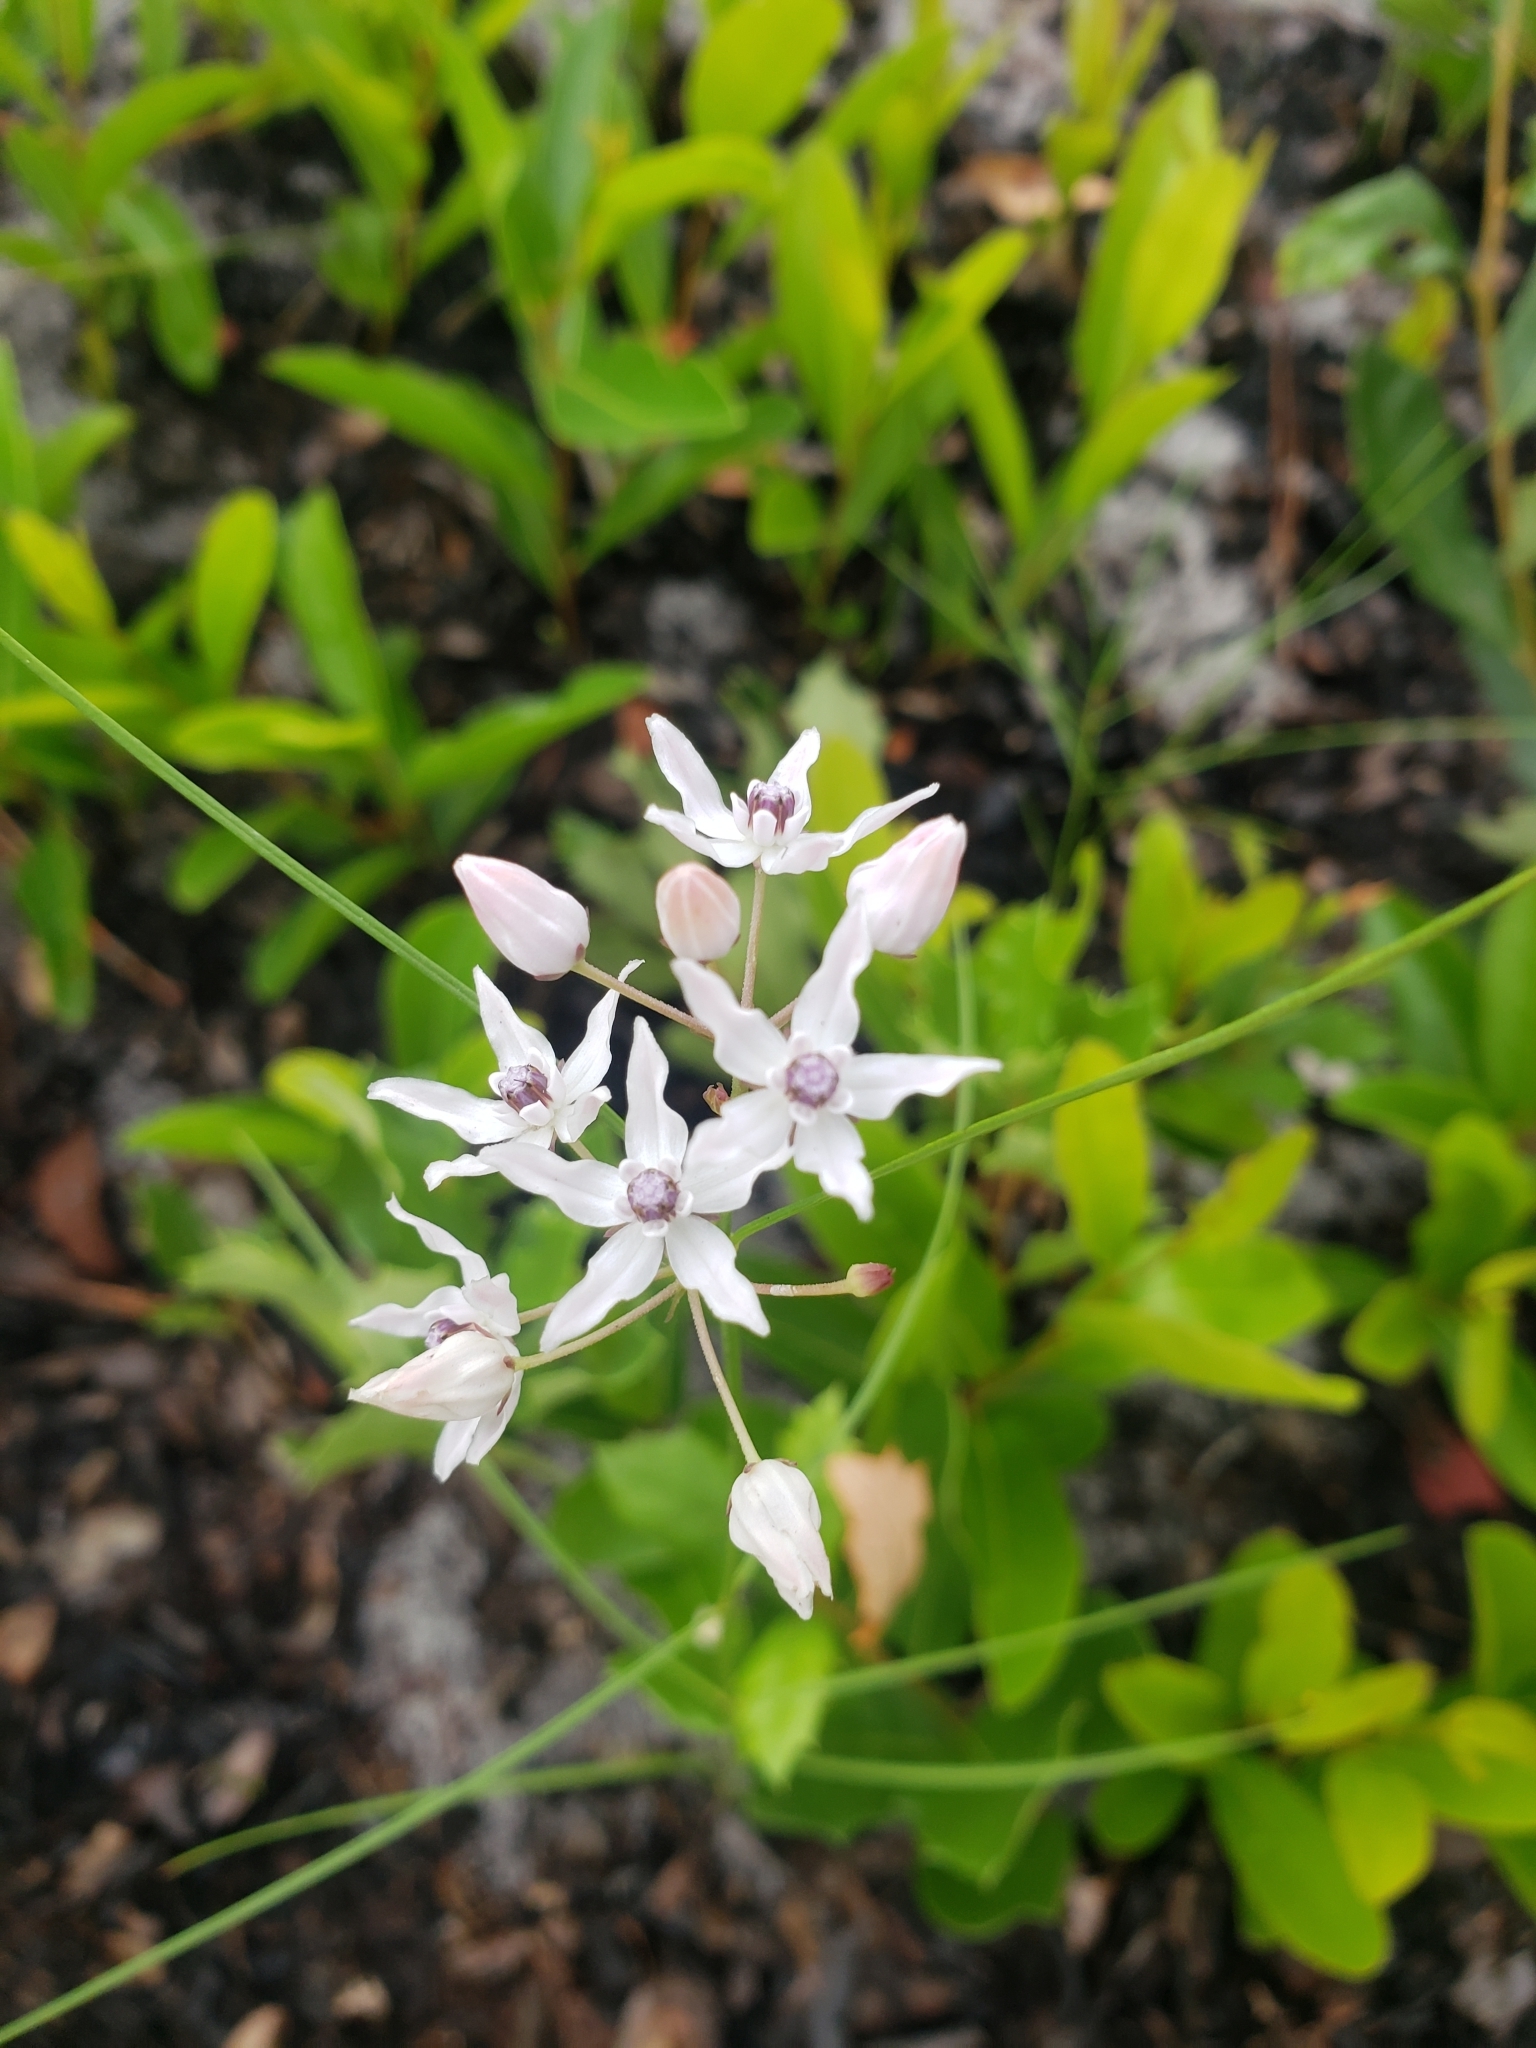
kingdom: Plantae
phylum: Tracheophyta
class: Magnoliopsida
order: Gentianales
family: Apocynaceae
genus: Asclepias
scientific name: Asclepias feayi
